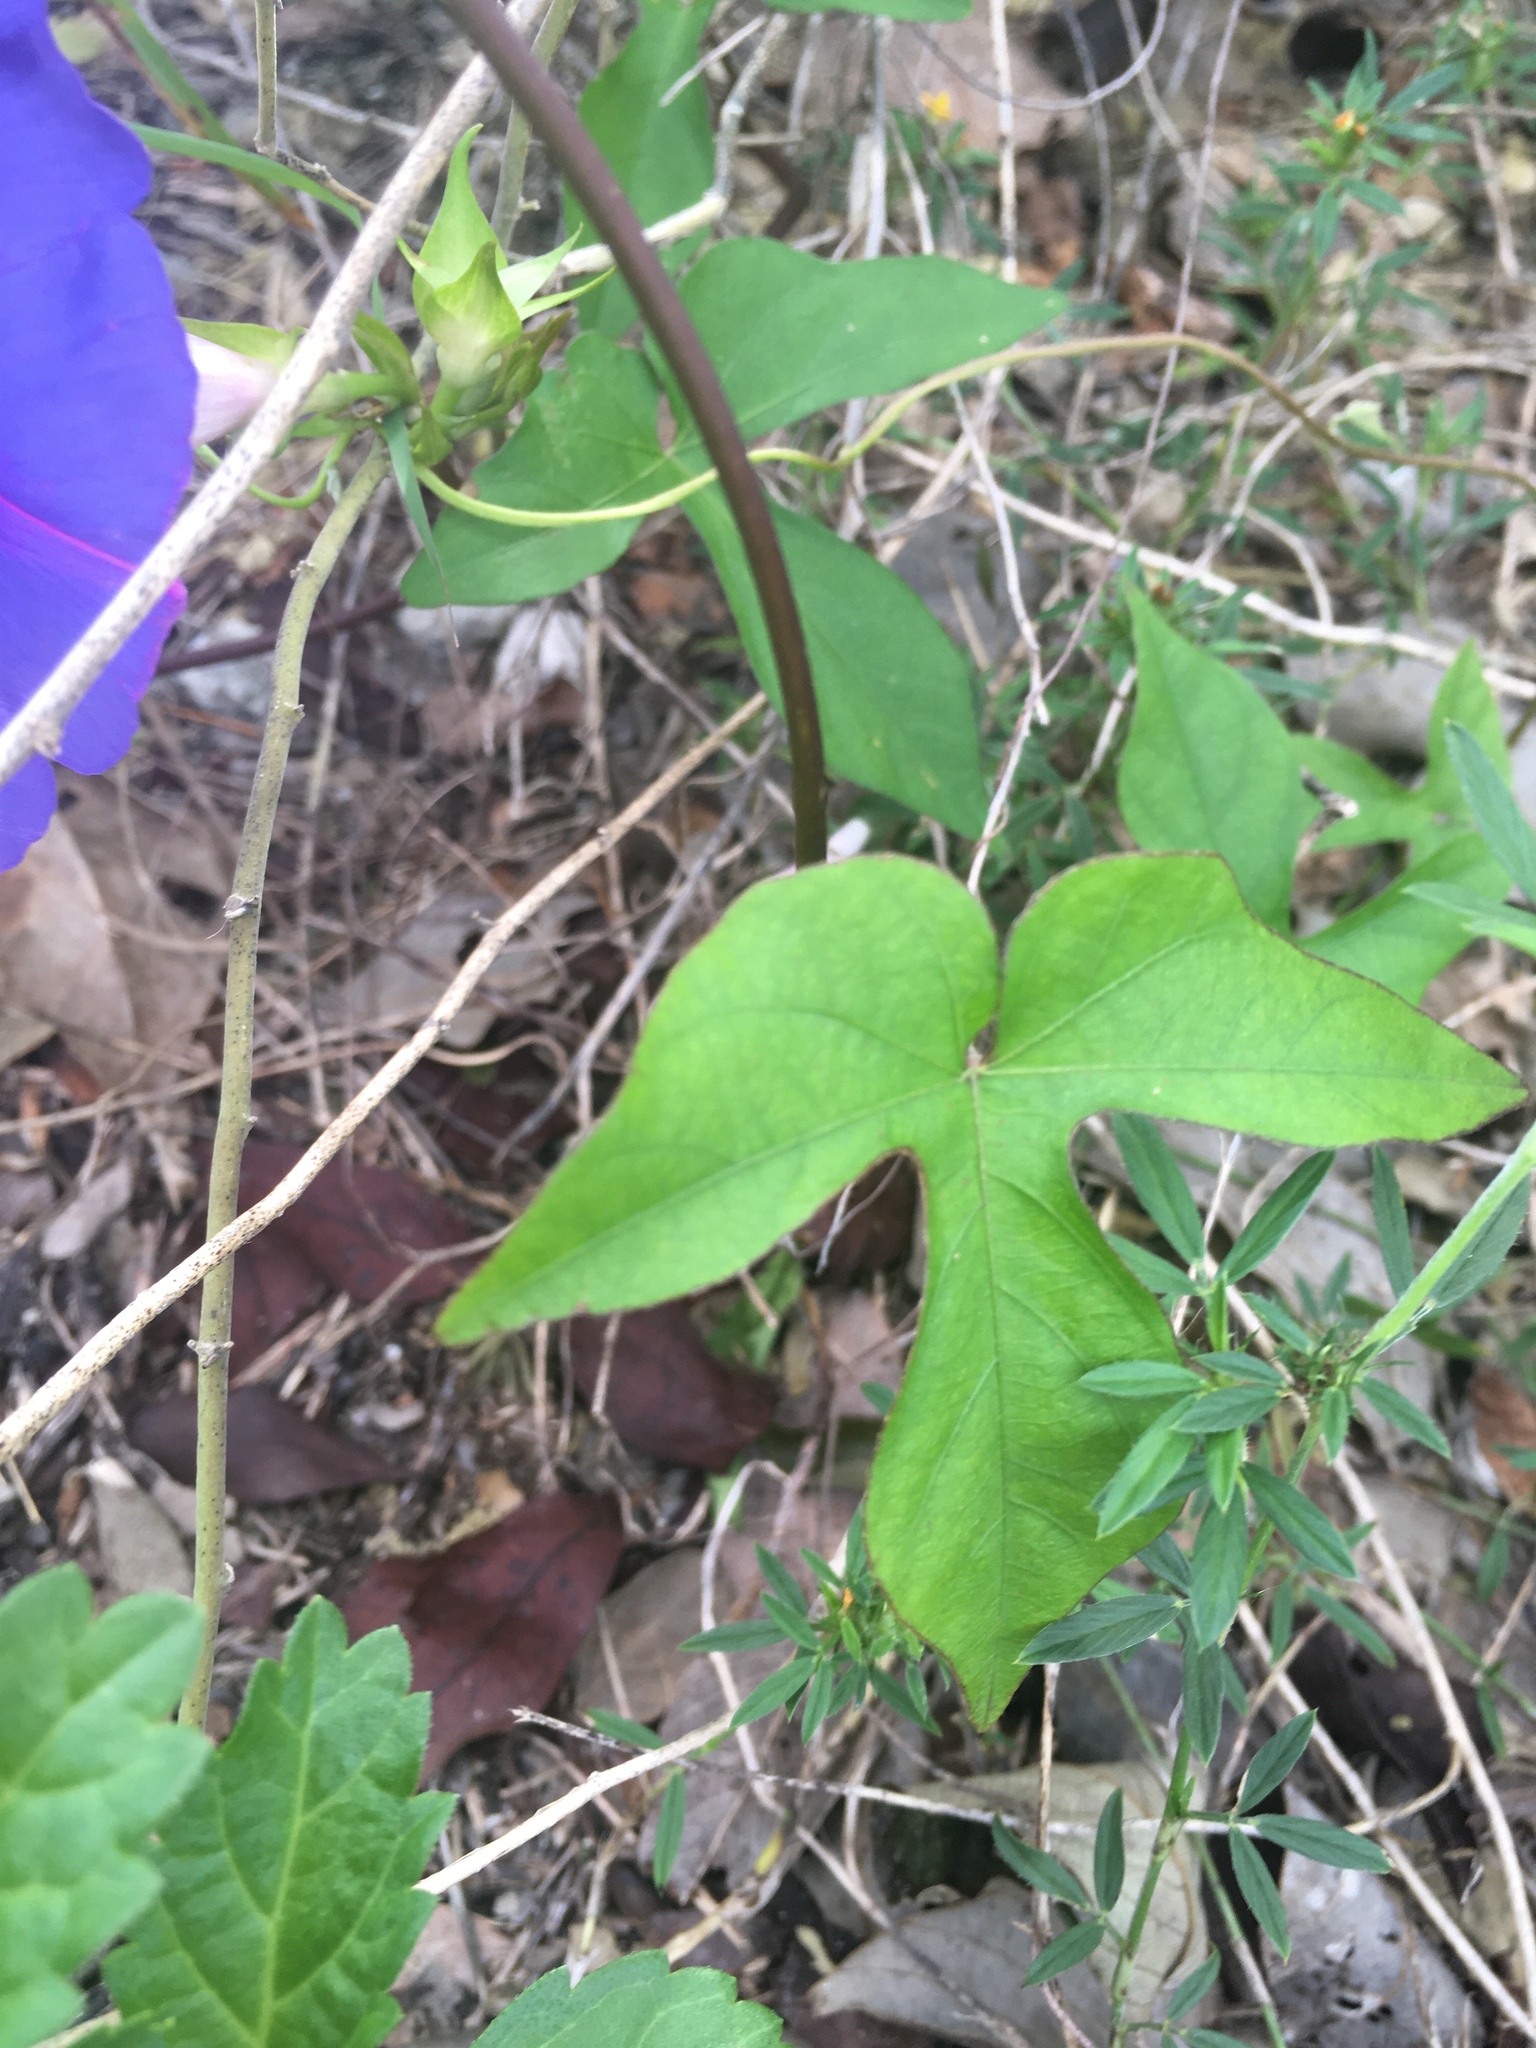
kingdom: Plantae
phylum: Tracheophyta
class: Magnoliopsida
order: Solanales
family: Convolvulaceae
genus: Ipomoea
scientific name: Ipomoea indica
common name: Blue dawnflower
